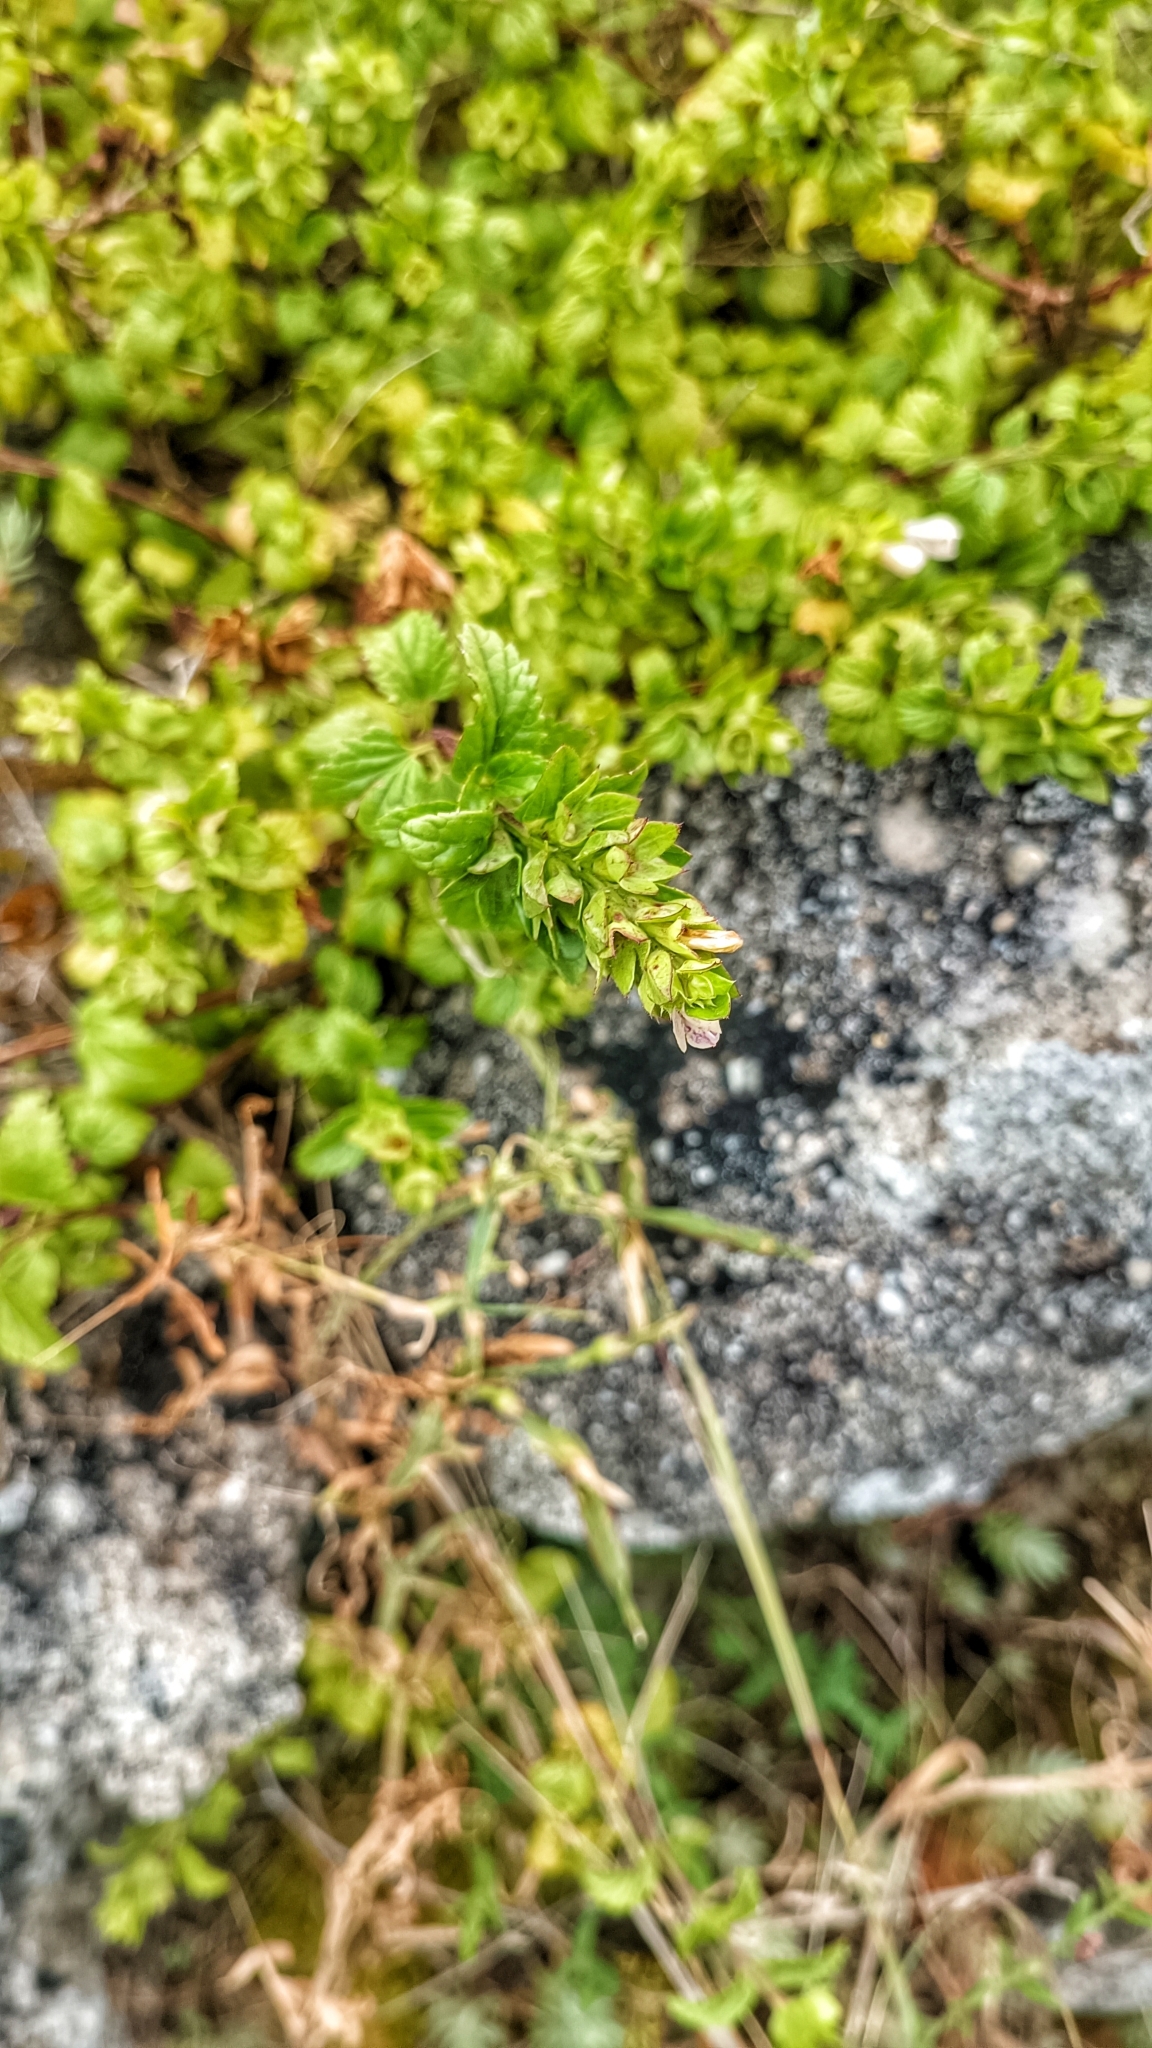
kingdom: Plantae
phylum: Tracheophyta
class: Magnoliopsida
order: Lamiales
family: Lamiaceae
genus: Prasium
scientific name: Prasium majus
